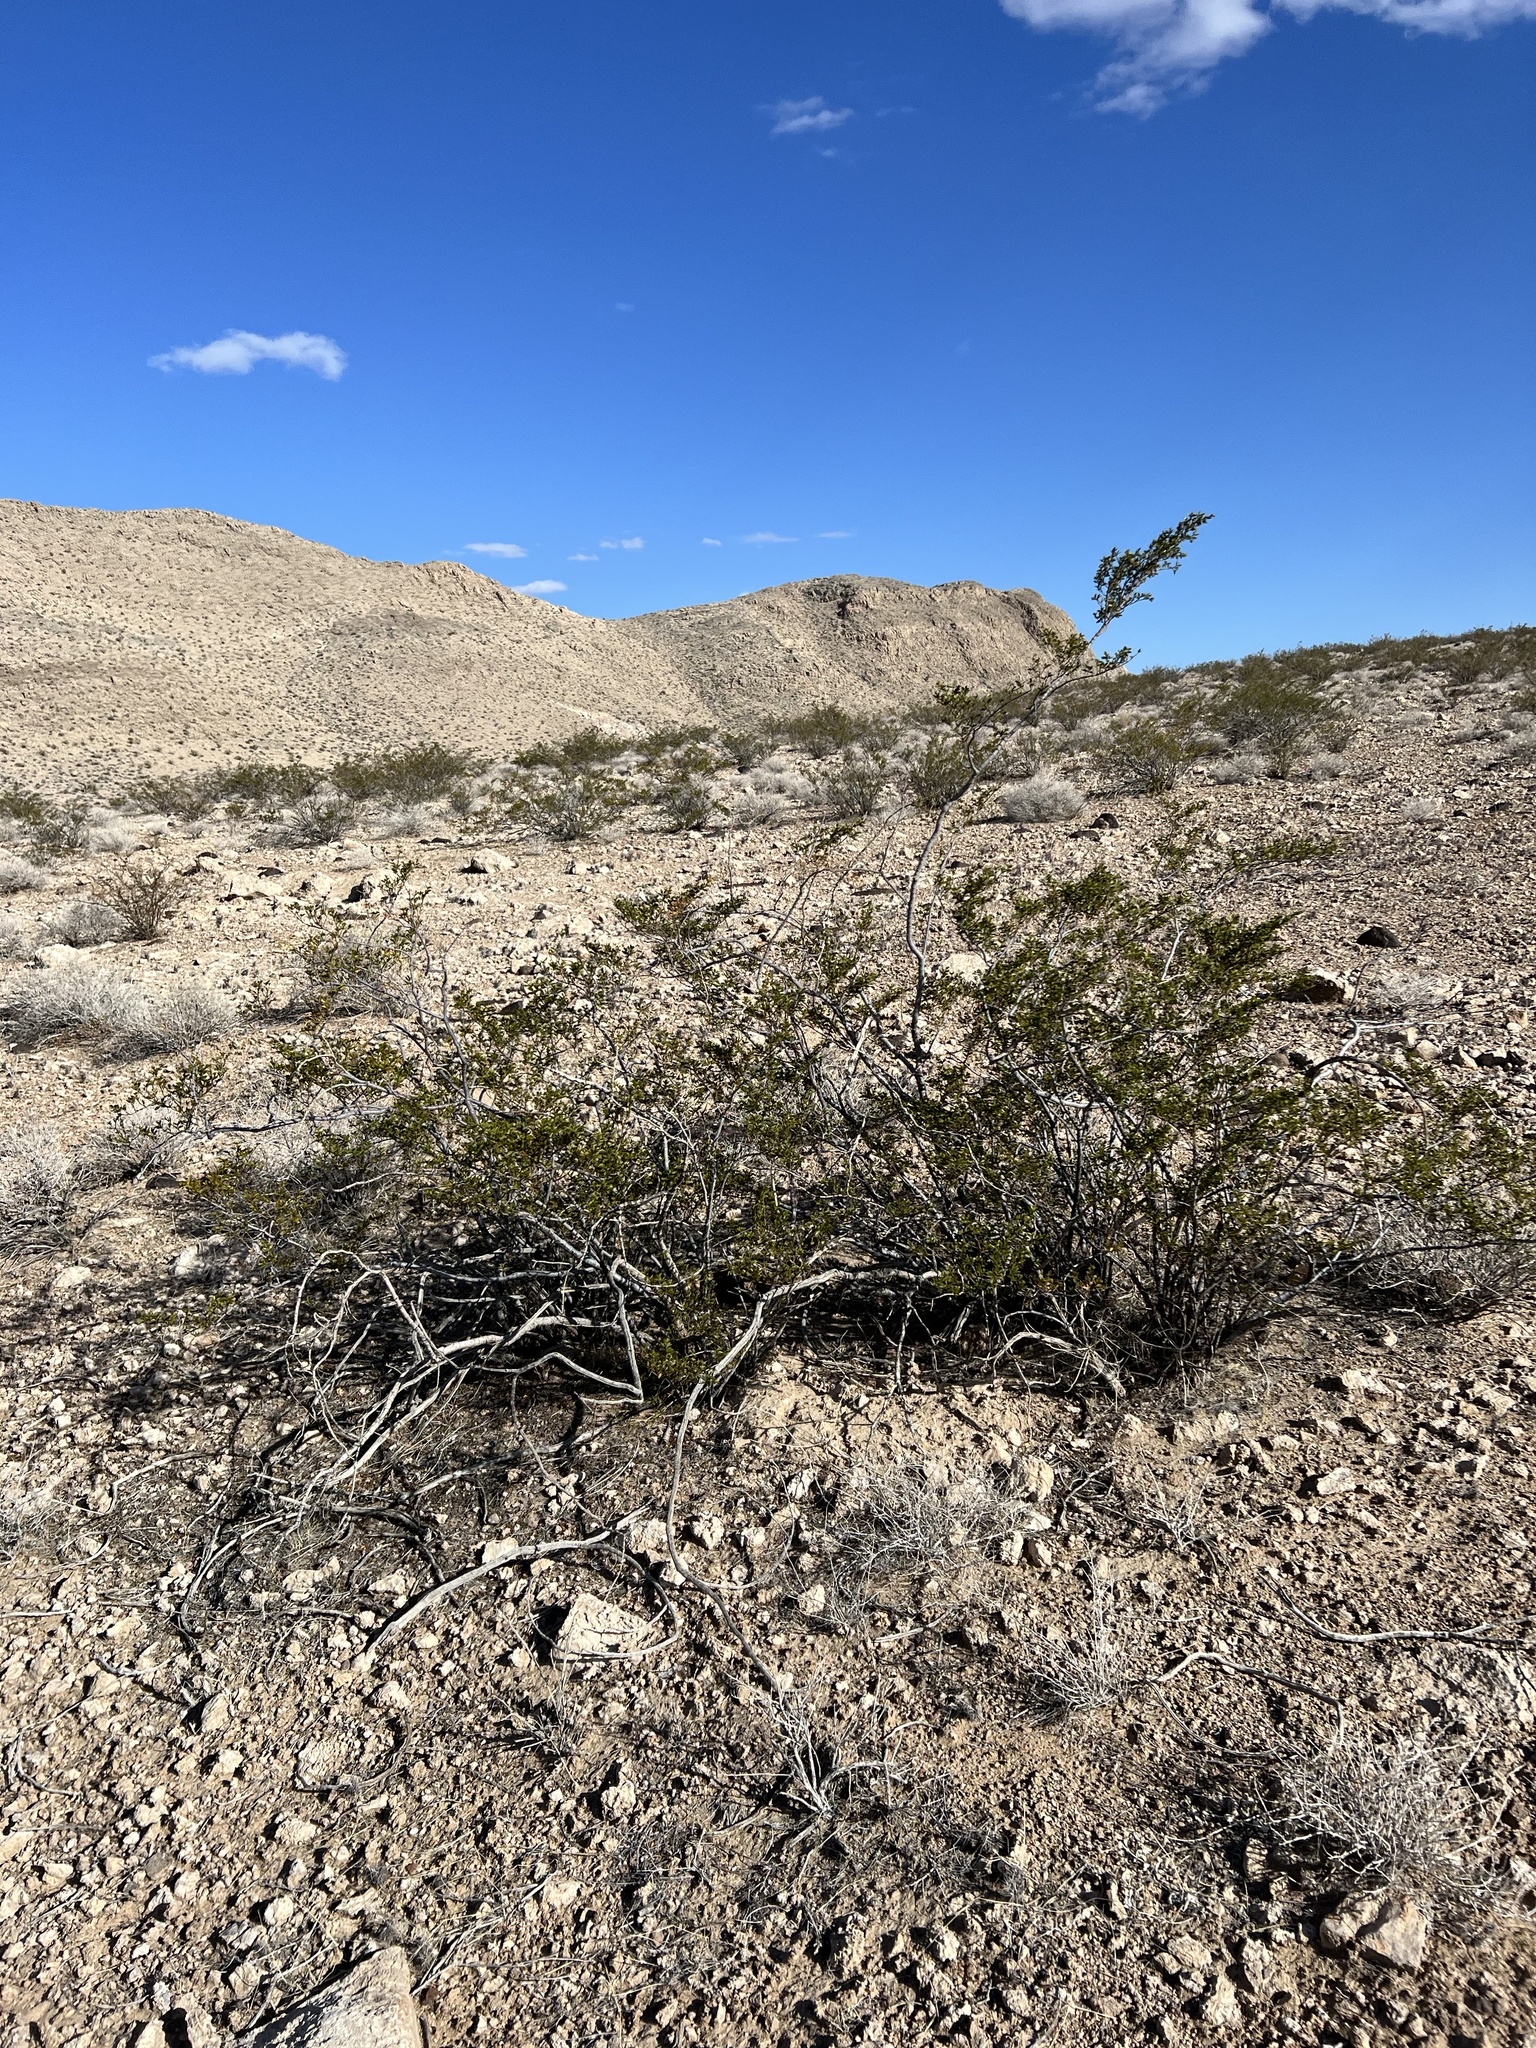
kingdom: Plantae
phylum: Tracheophyta
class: Magnoliopsida
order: Zygophyllales
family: Zygophyllaceae
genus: Larrea
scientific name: Larrea tridentata
